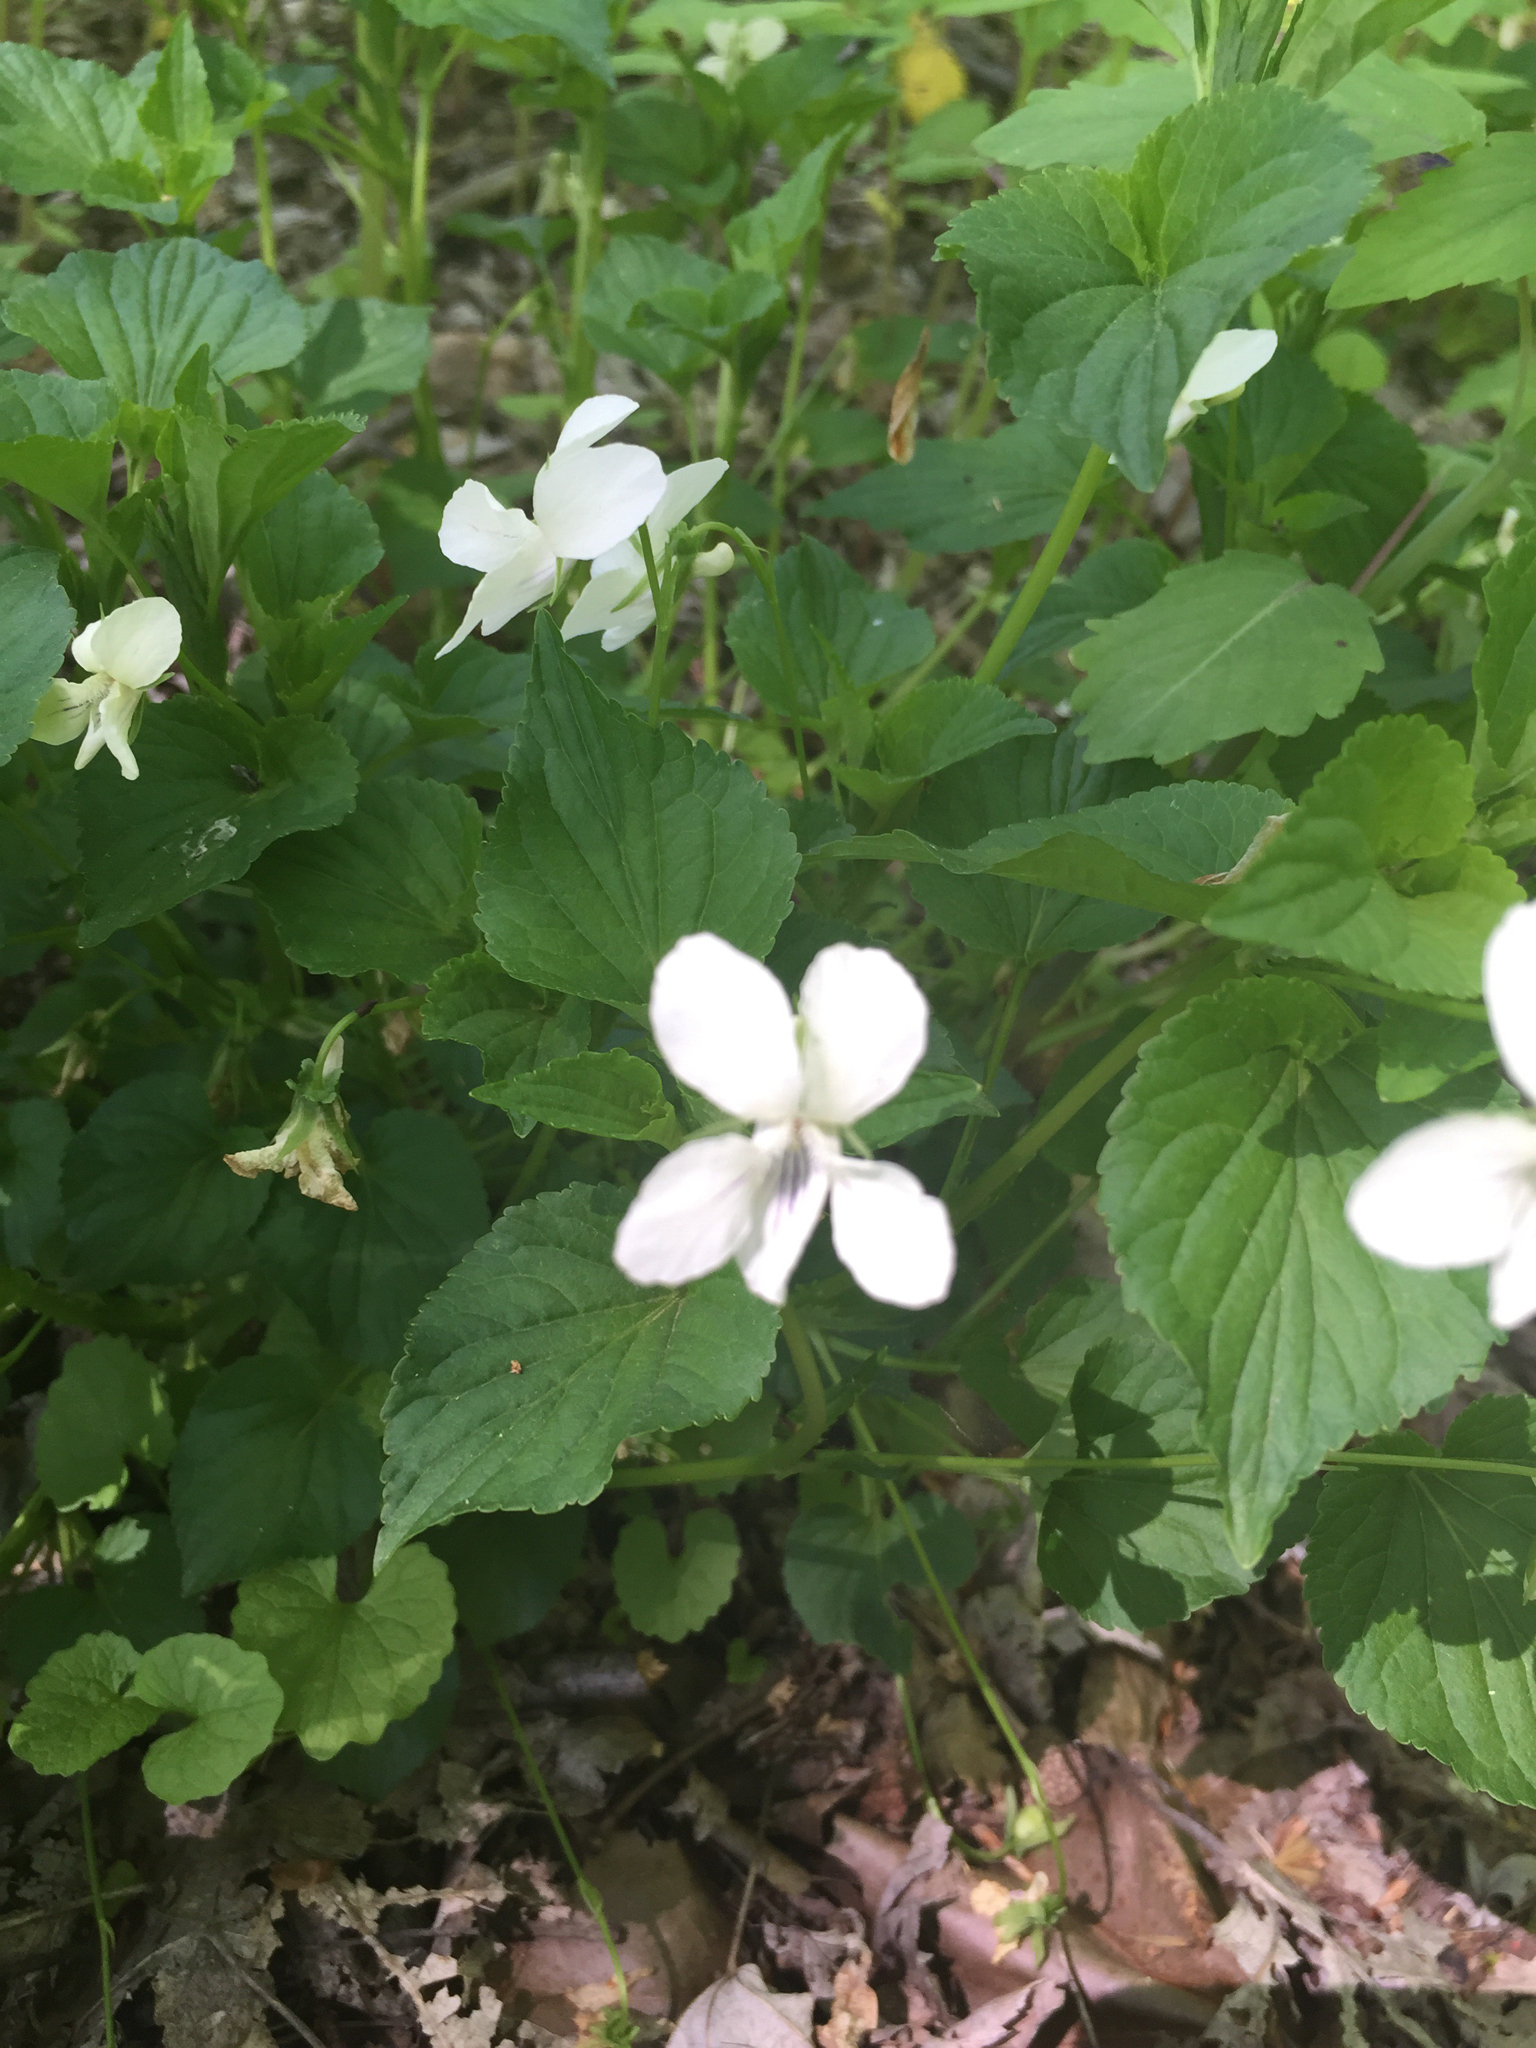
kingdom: Plantae
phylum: Tracheophyta
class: Magnoliopsida
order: Malpighiales
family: Violaceae
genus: Viola
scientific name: Viola striata
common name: Cream violet
